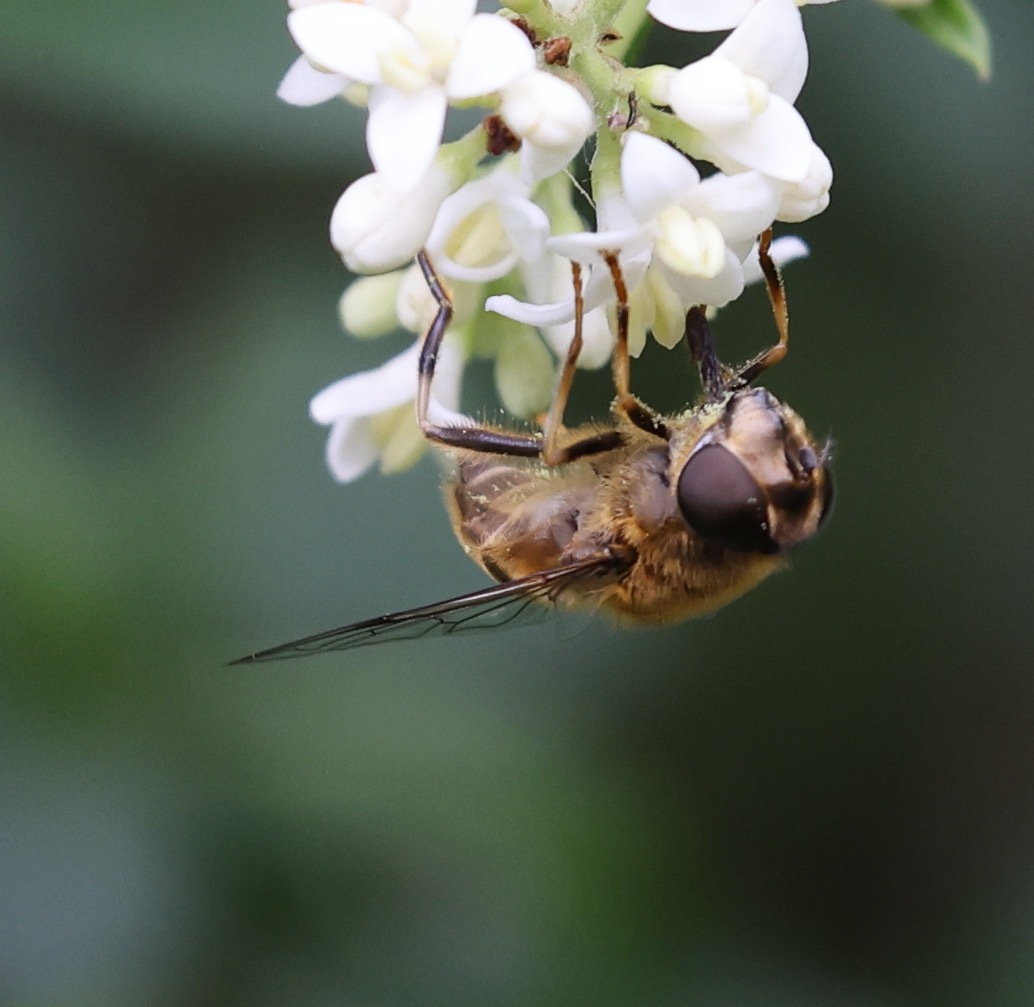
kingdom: Animalia
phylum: Arthropoda
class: Insecta
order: Diptera
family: Syrphidae
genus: Eristalis
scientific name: Eristalis pertinax
